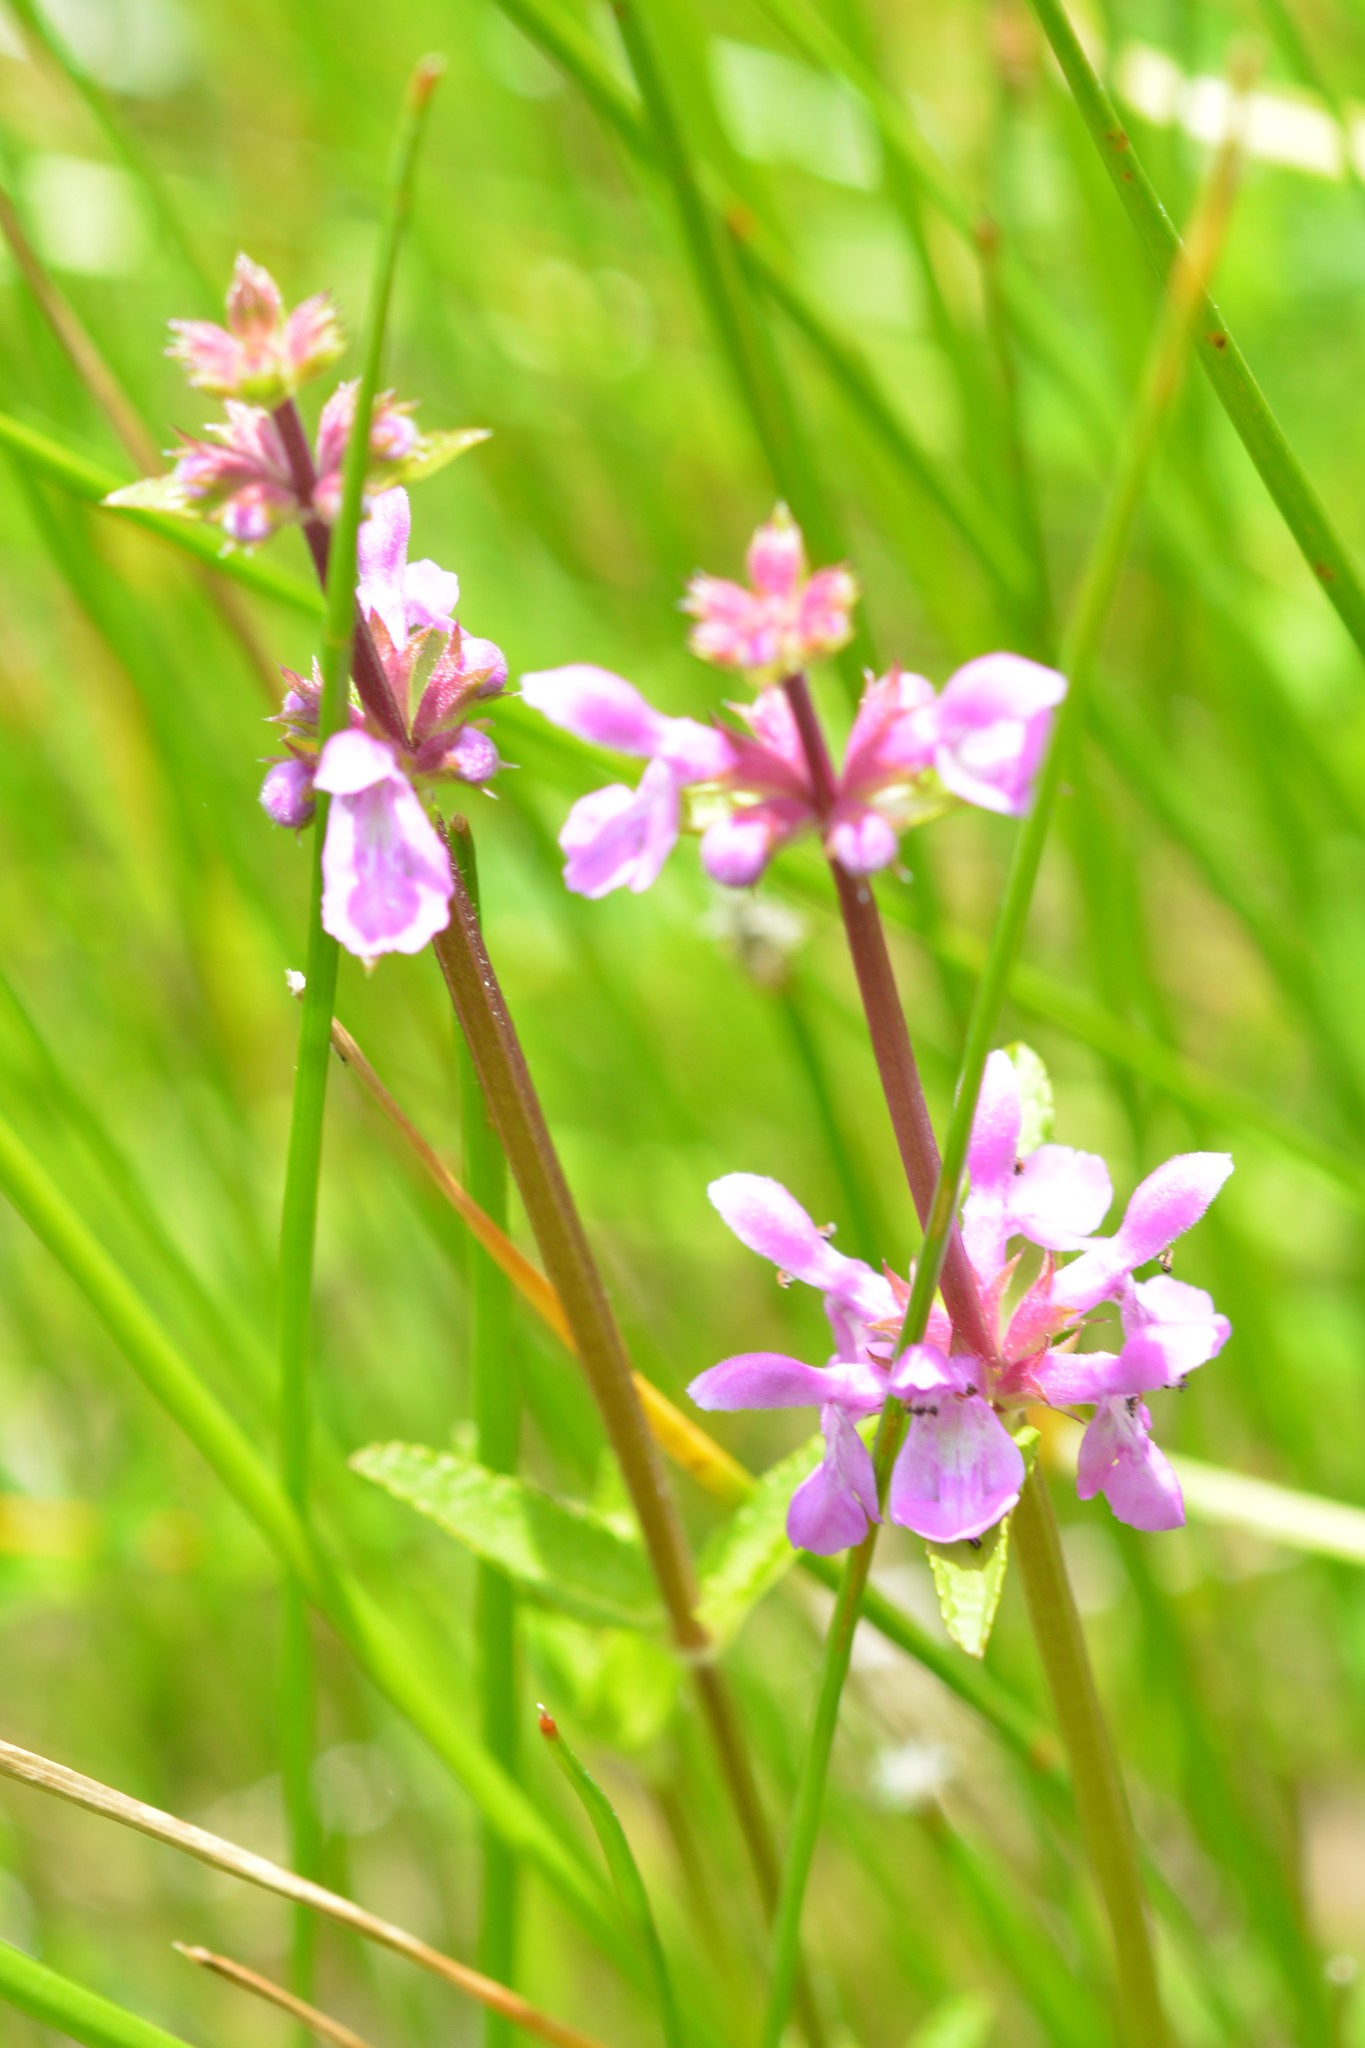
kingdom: Plantae
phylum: Tracheophyta
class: Magnoliopsida
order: Lamiales
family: Lamiaceae
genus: Stachys
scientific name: Stachys harleyana
